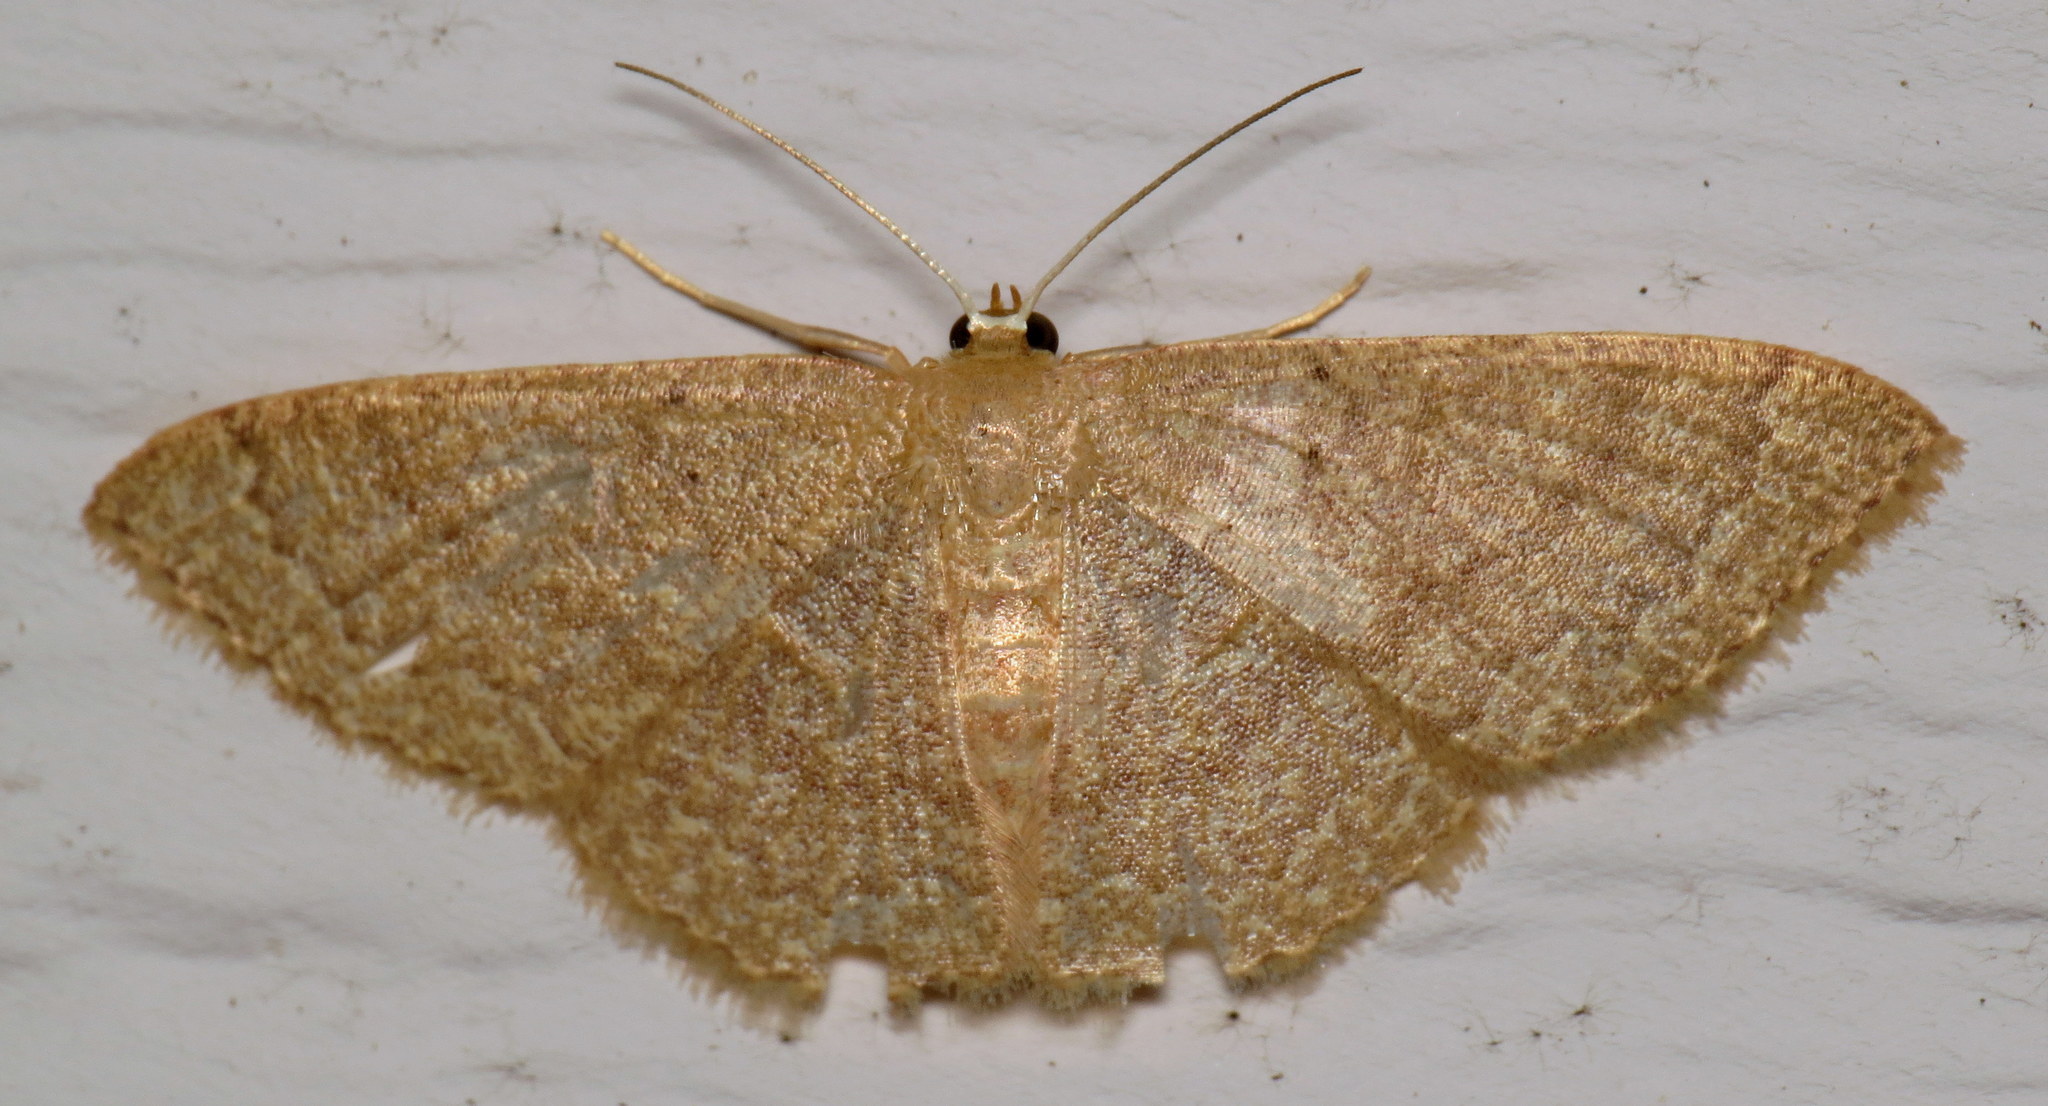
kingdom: Animalia
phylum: Arthropoda
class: Insecta
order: Lepidoptera
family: Geometridae
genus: Pleuroprucha
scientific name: Pleuroprucha insulsaria
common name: Common tan wave
